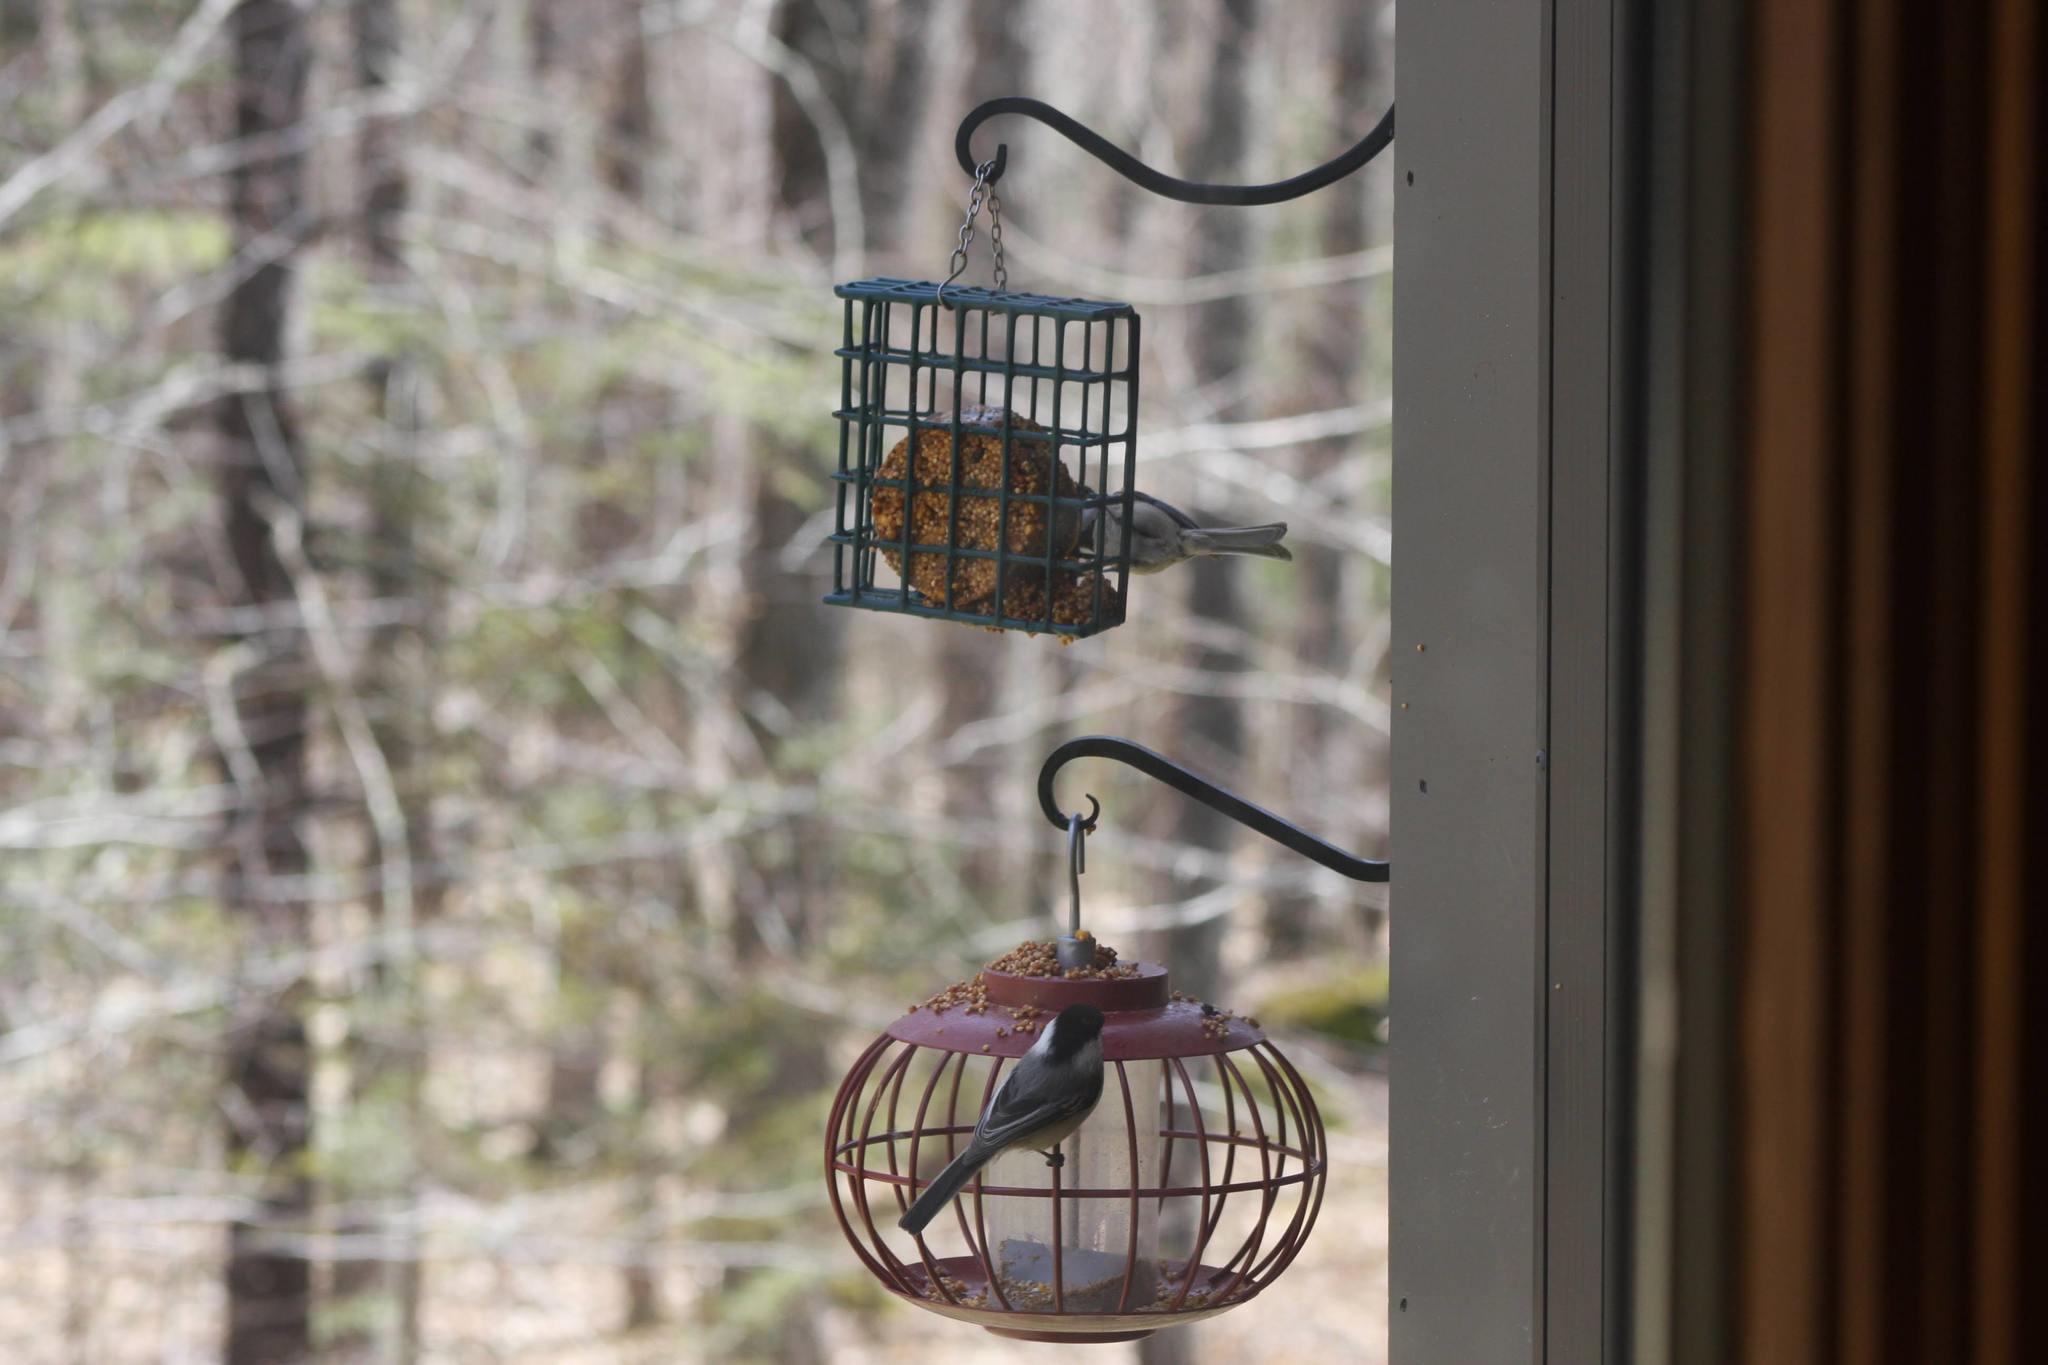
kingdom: Animalia
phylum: Chordata
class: Aves
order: Passeriformes
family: Paridae
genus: Poecile
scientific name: Poecile atricapillus
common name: Black-capped chickadee
